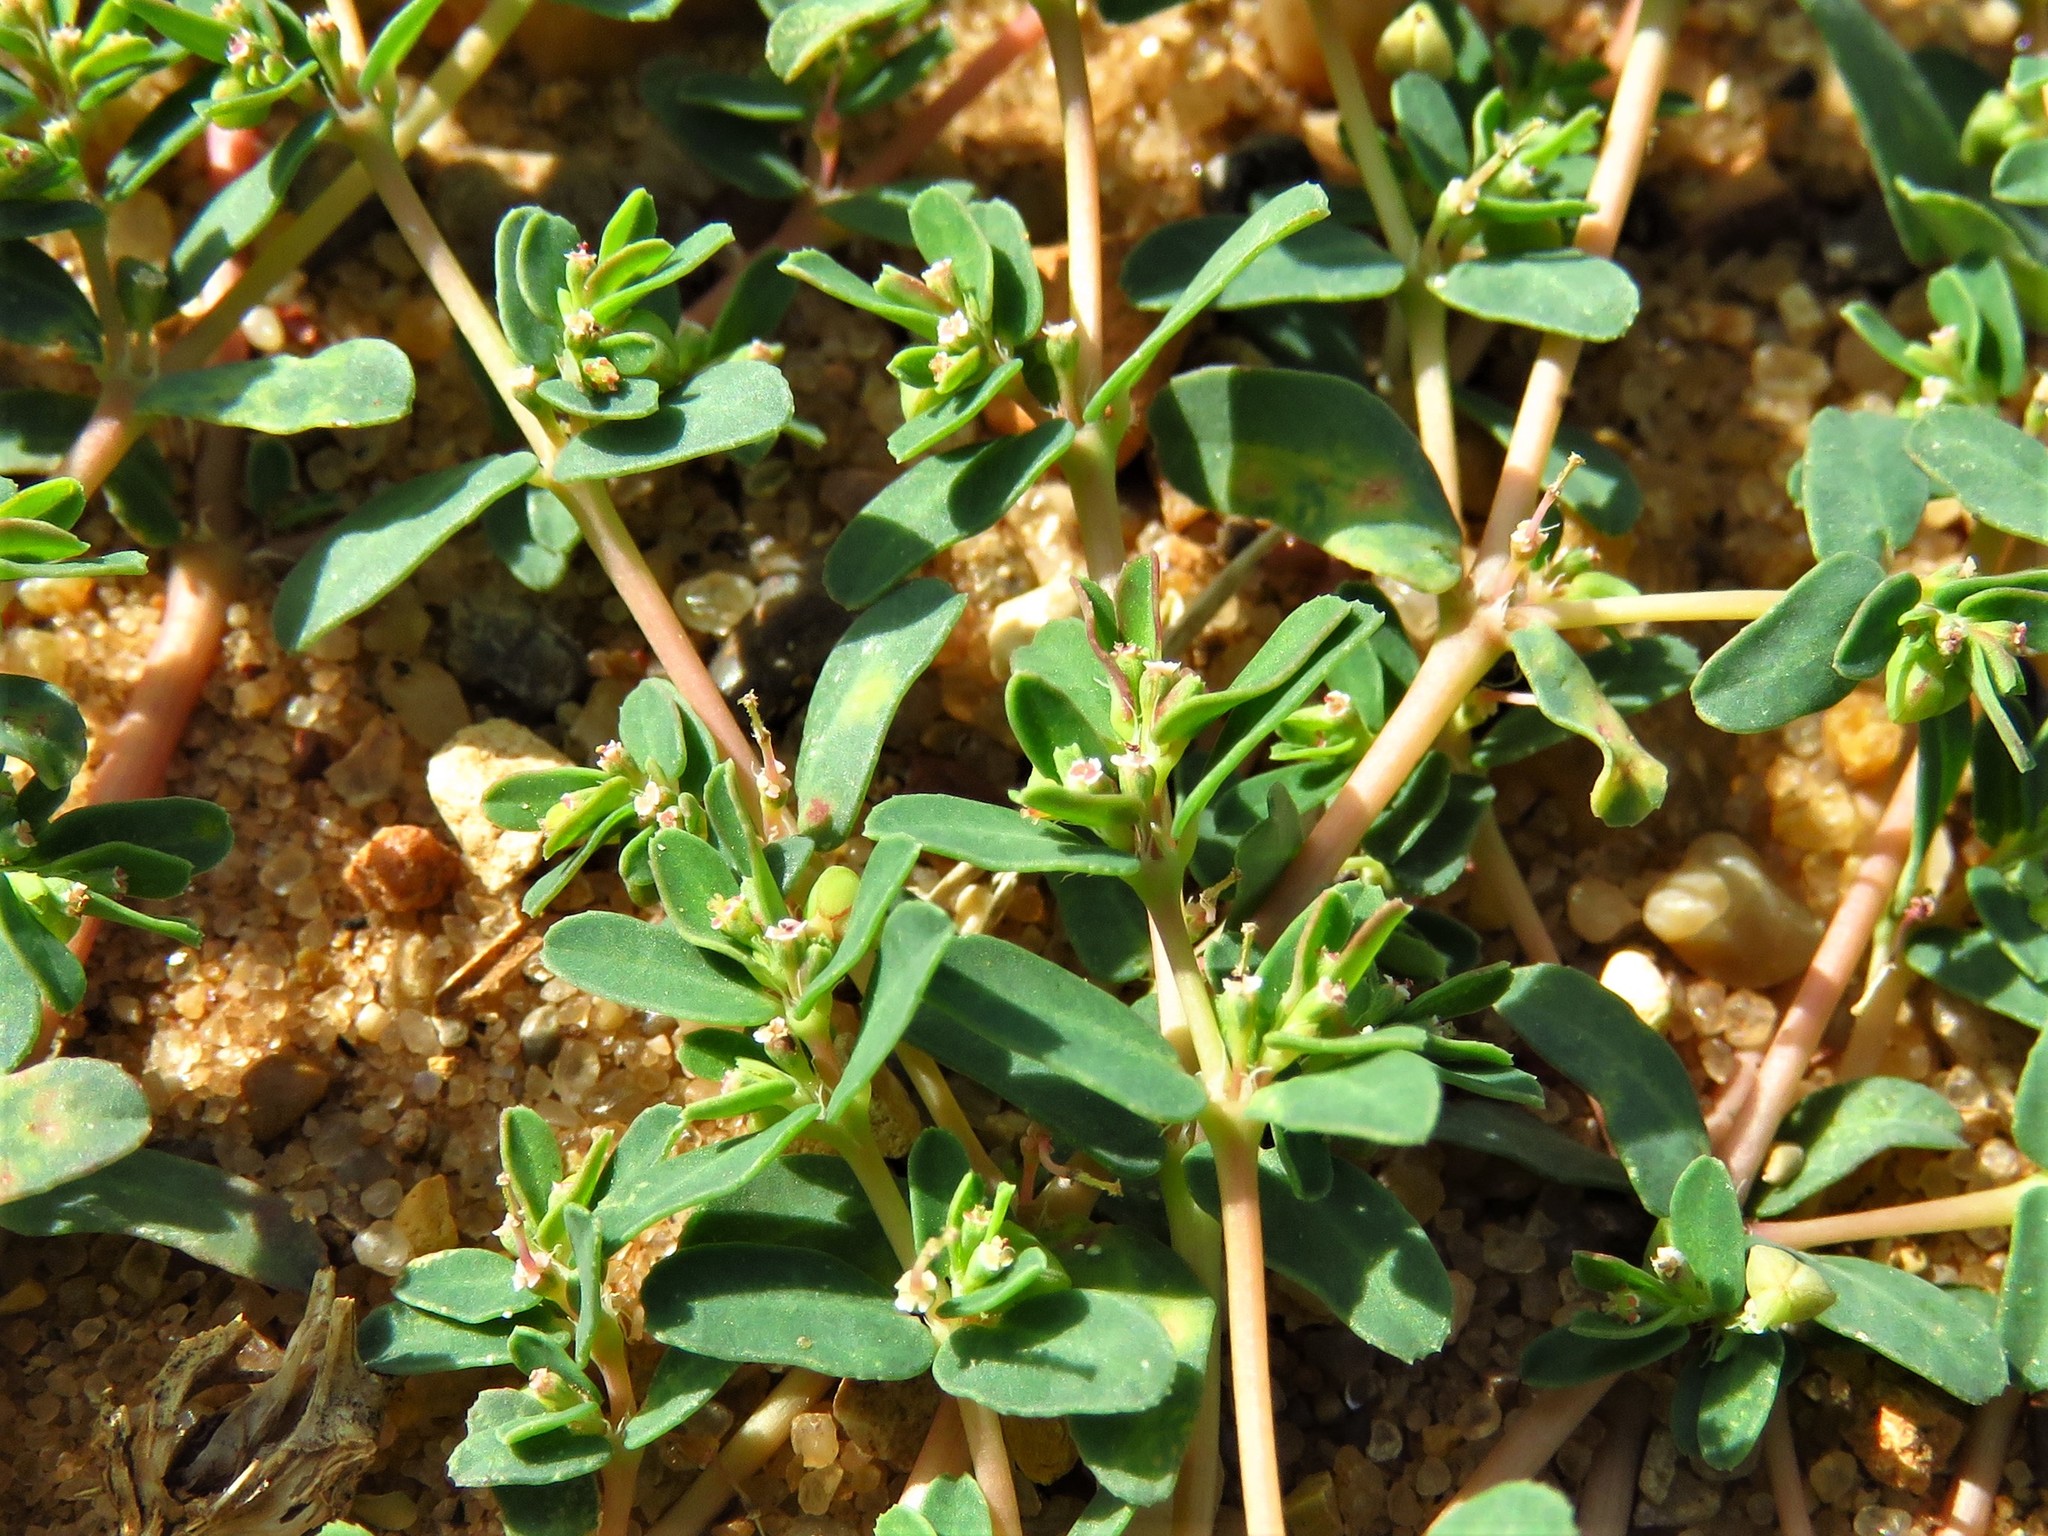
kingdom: Plantae
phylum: Tracheophyta
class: Magnoliopsida
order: Malpighiales
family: Euphorbiaceae
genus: Euphorbia
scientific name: Euphorbia glyptosperma
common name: Corrugate-seeded spurge
